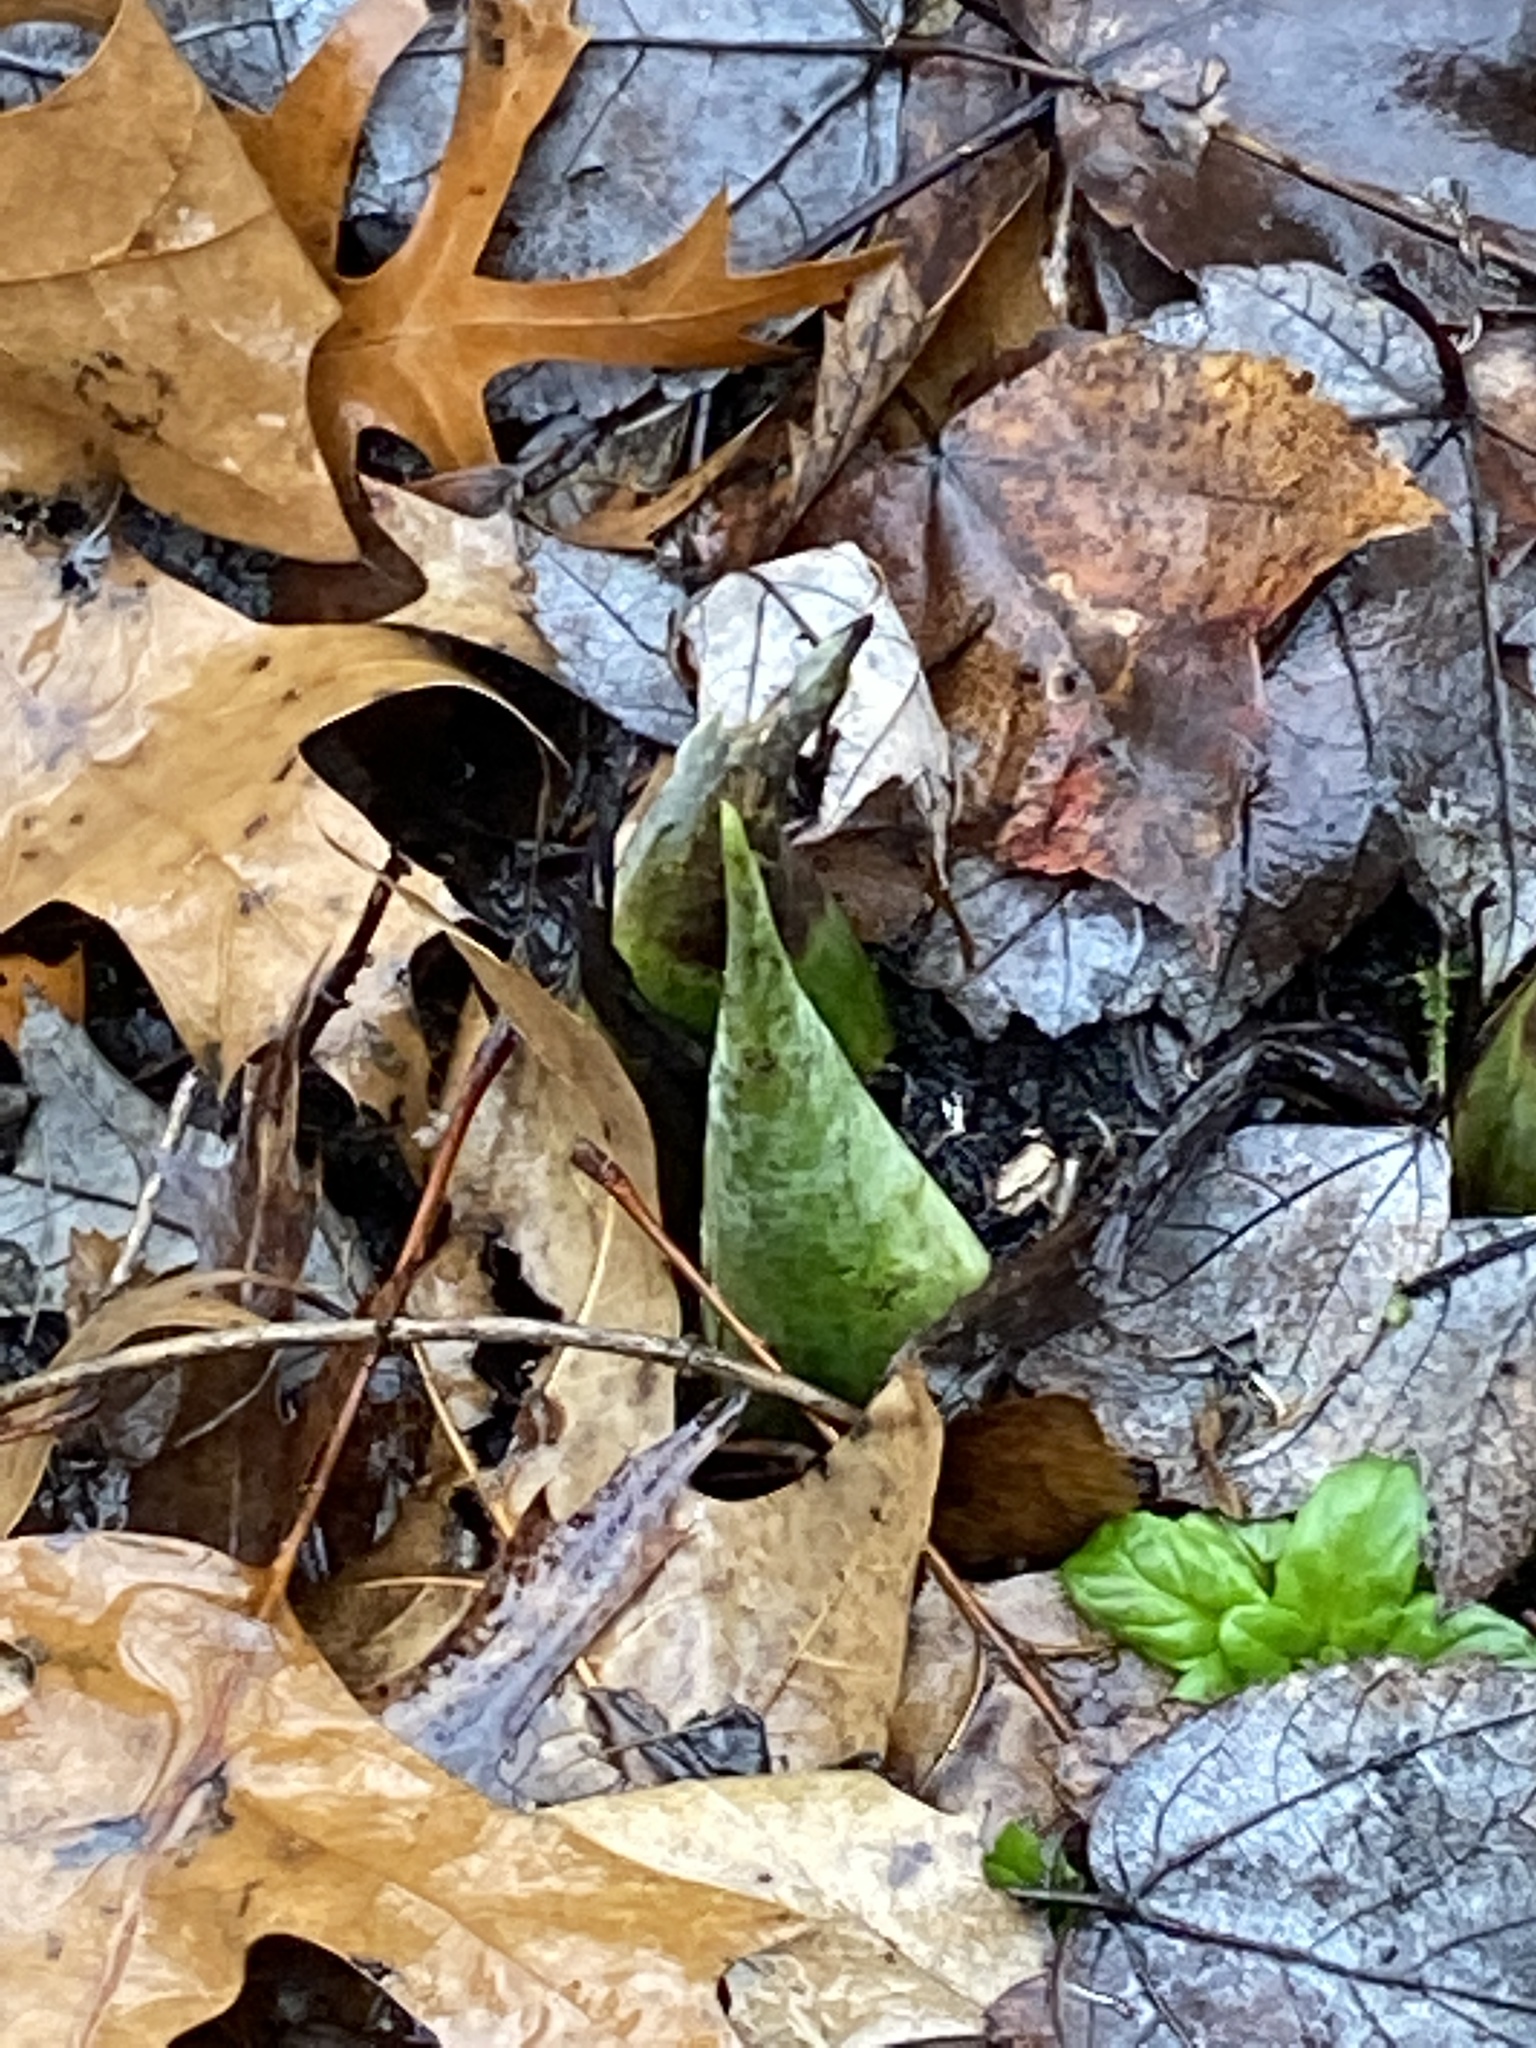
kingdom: Plantae
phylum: Tracheophyta
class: Liliopsida
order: Alismatales
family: Araceae
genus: Symplocarpus
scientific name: Symplocarpus foetidus
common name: Eastern skunk cabbage
